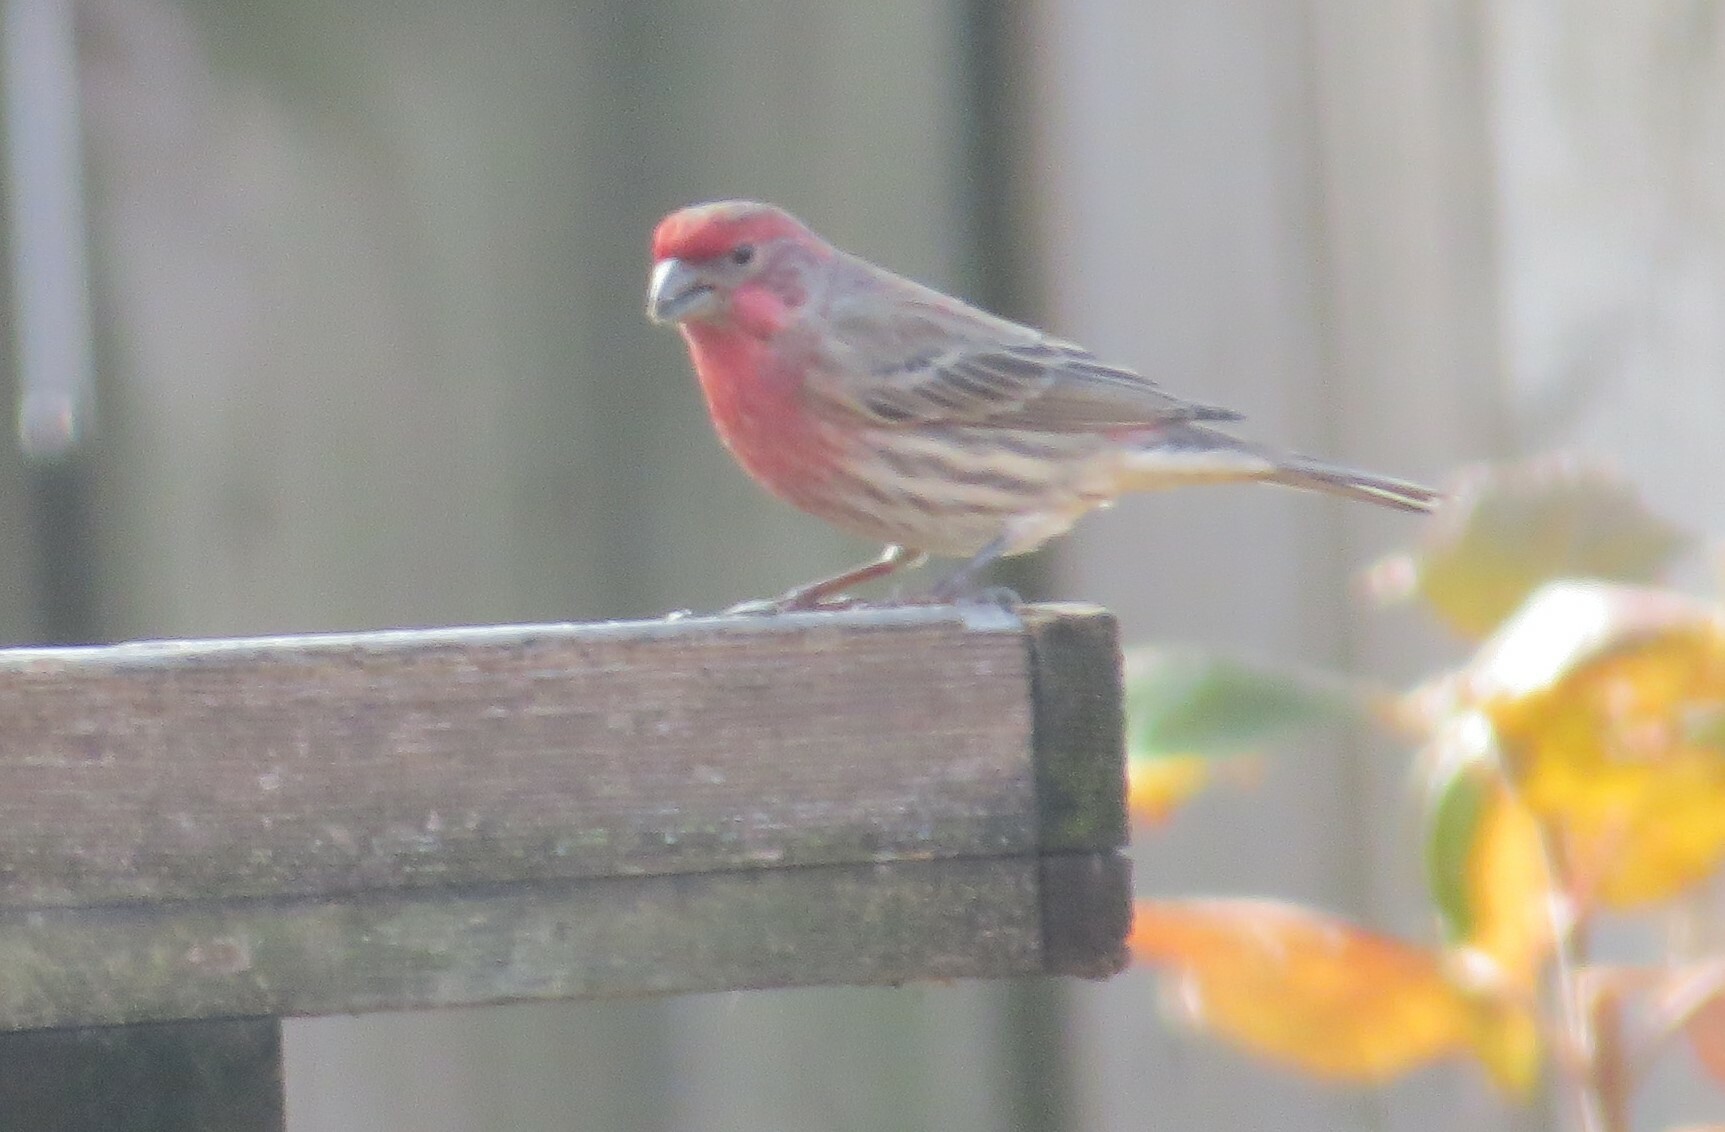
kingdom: Animalia
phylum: Chordata
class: Aves
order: Passeriformes
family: Fringillidae
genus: Haemorhous
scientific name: Haemorhous mexicanus
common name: House finch
